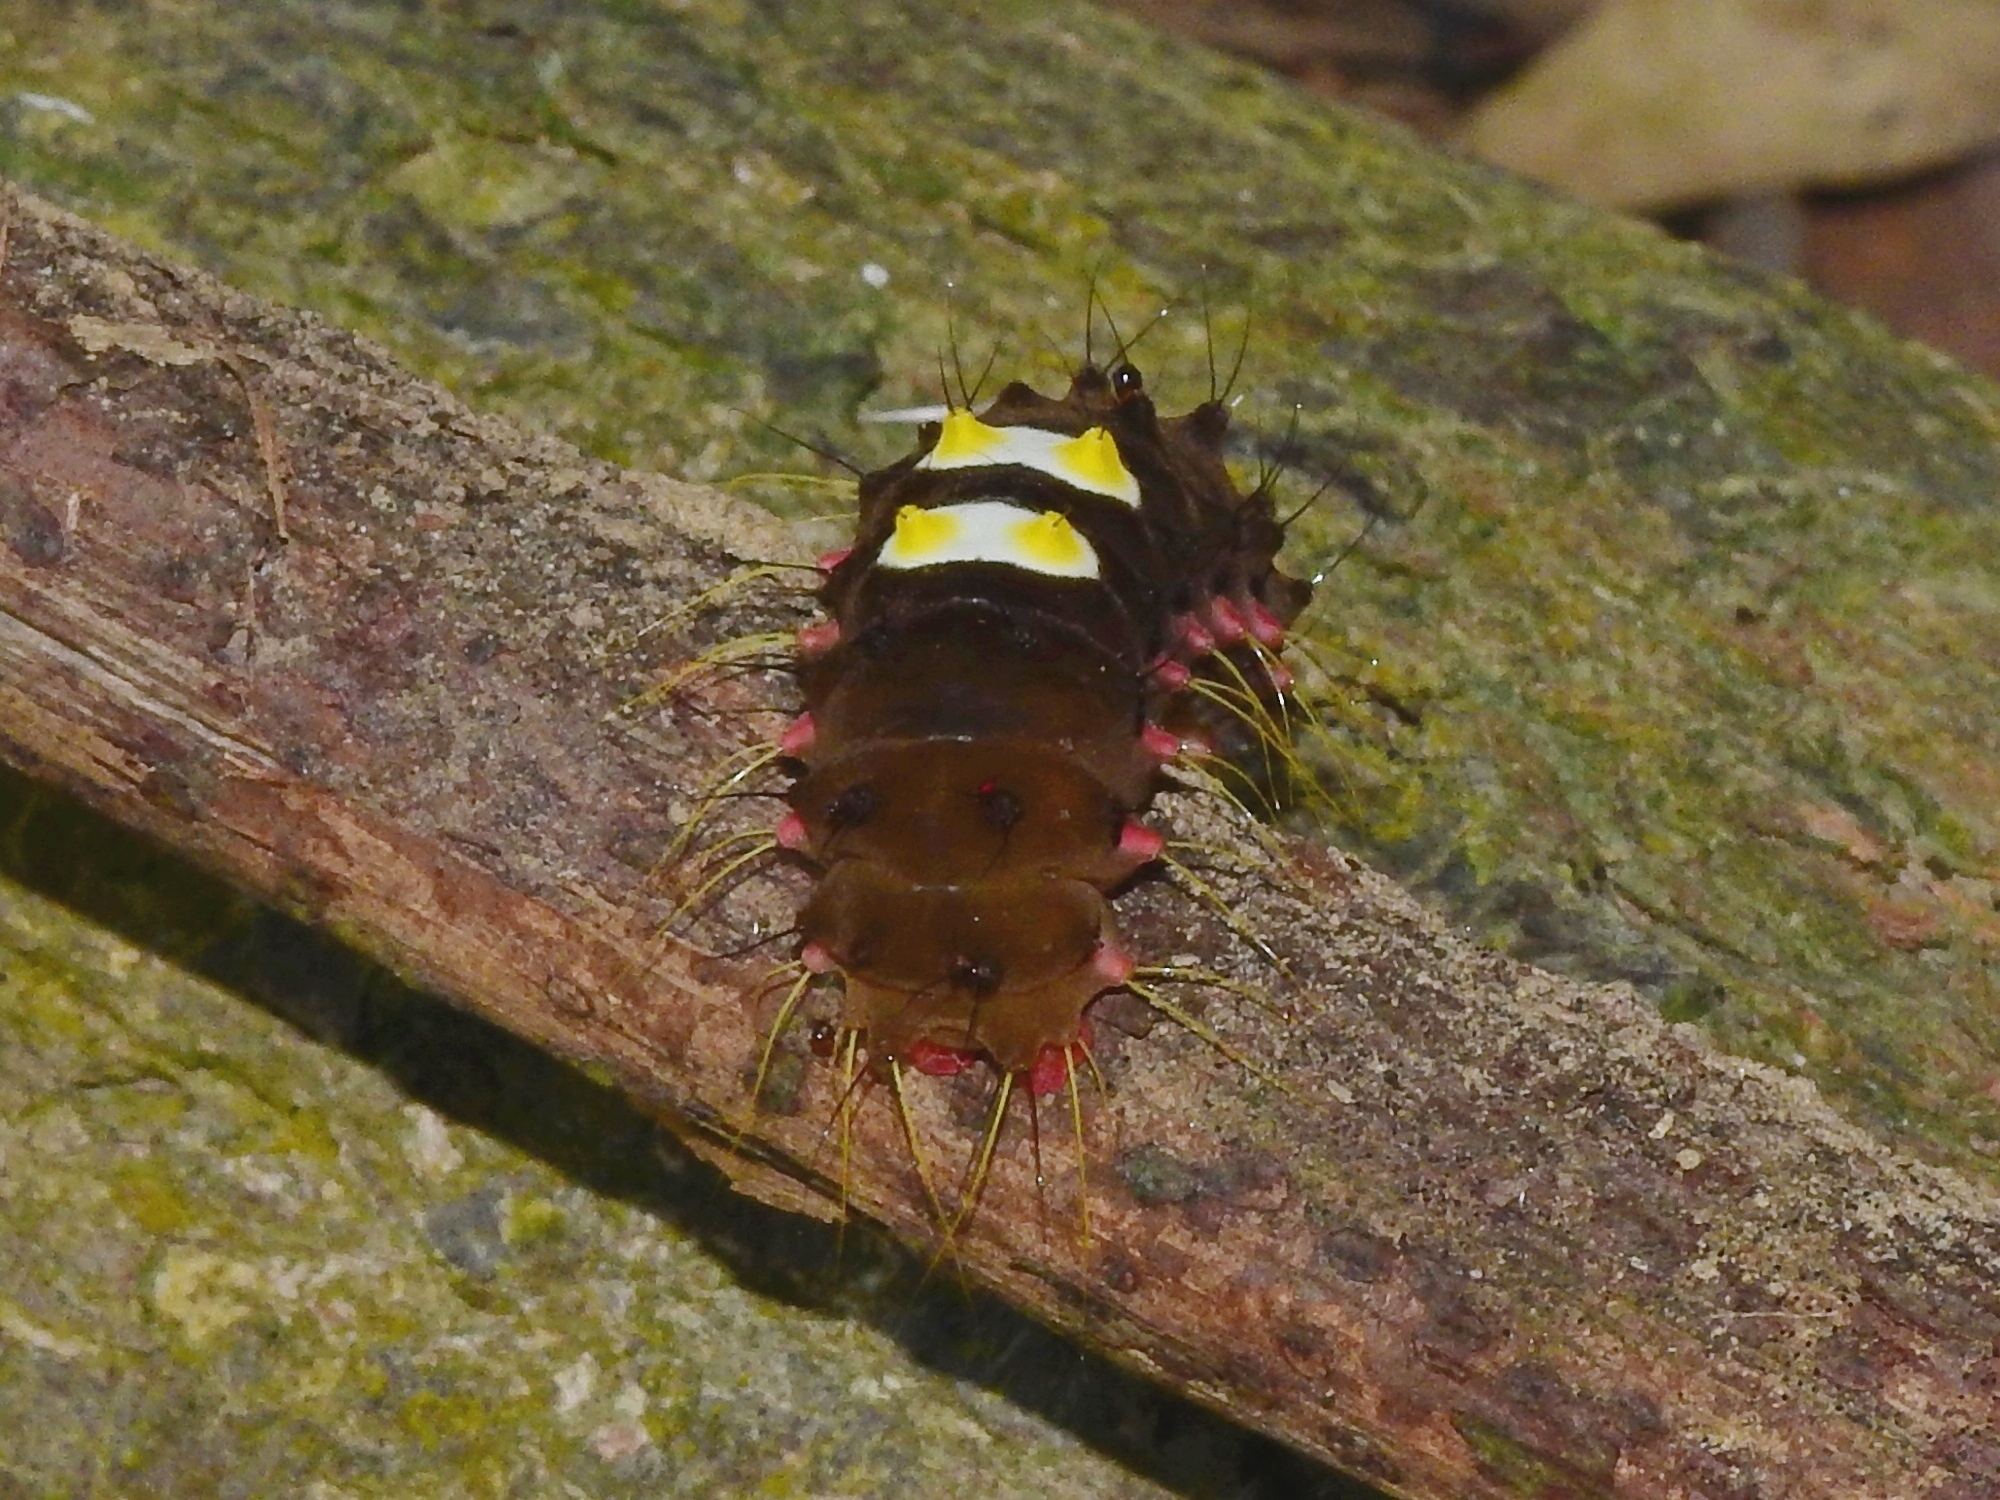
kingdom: Animalia
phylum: Arthropoda
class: Insecta
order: Lepidoptera
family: Zygaenidae
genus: Amesia
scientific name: Amesia sanguiflua
